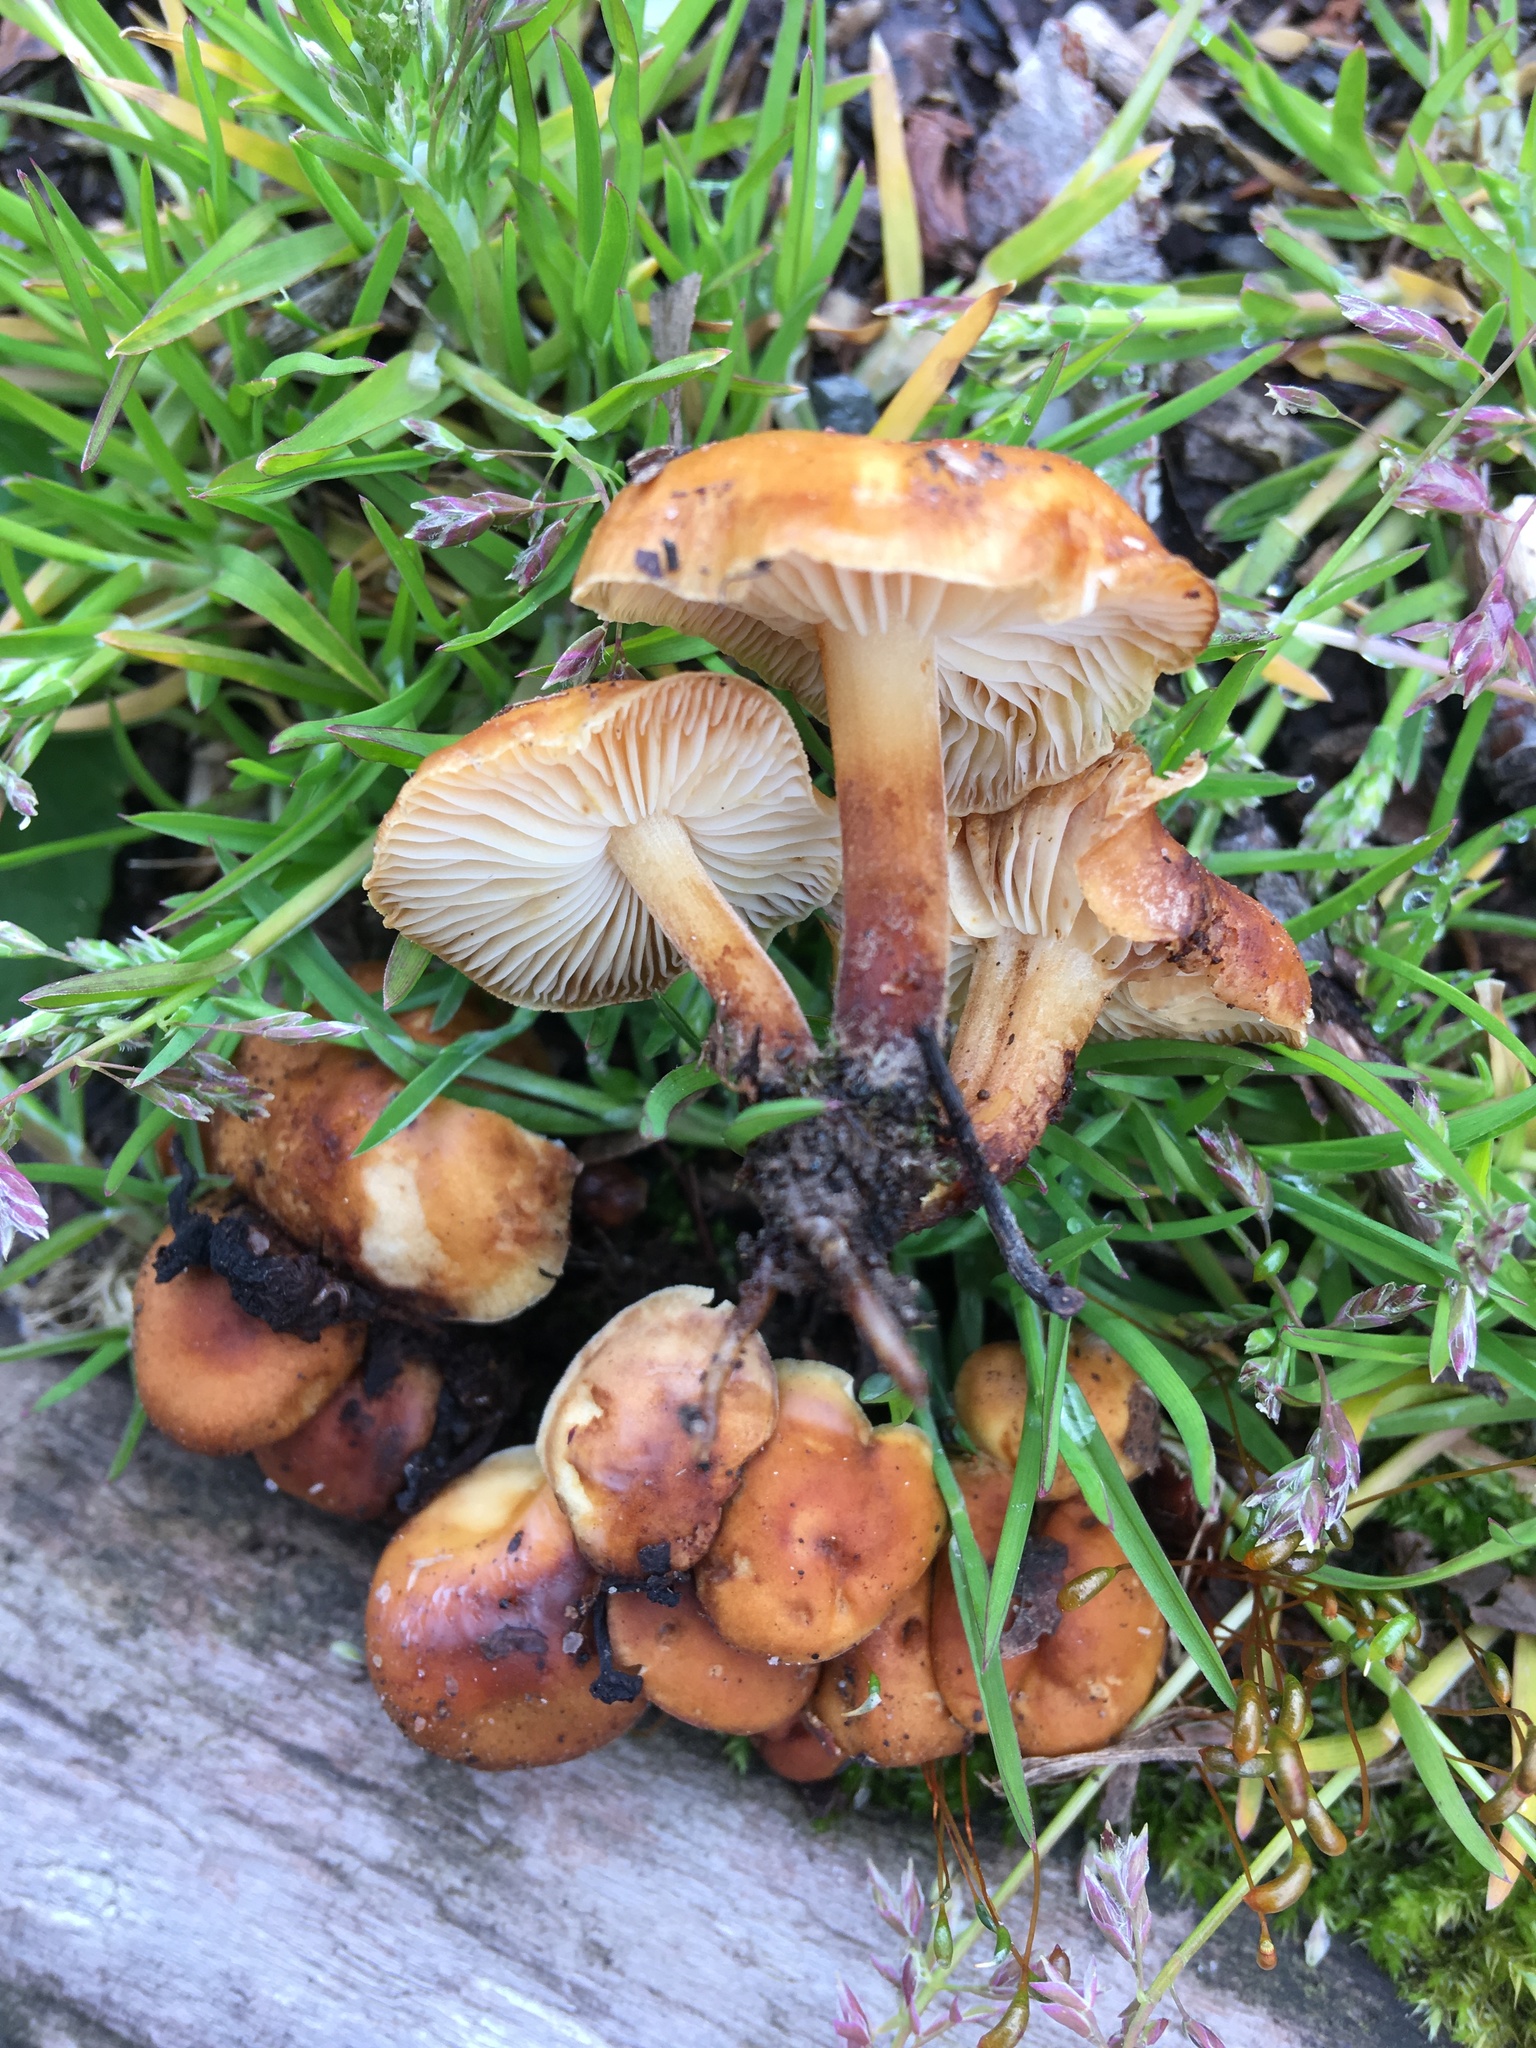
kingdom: Fungi
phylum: Basidiomycota
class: Agaricomycetes
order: Agaricales
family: Physalacriaceae
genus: Flammulina
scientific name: Flammulina velutipes
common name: Velvet shank
